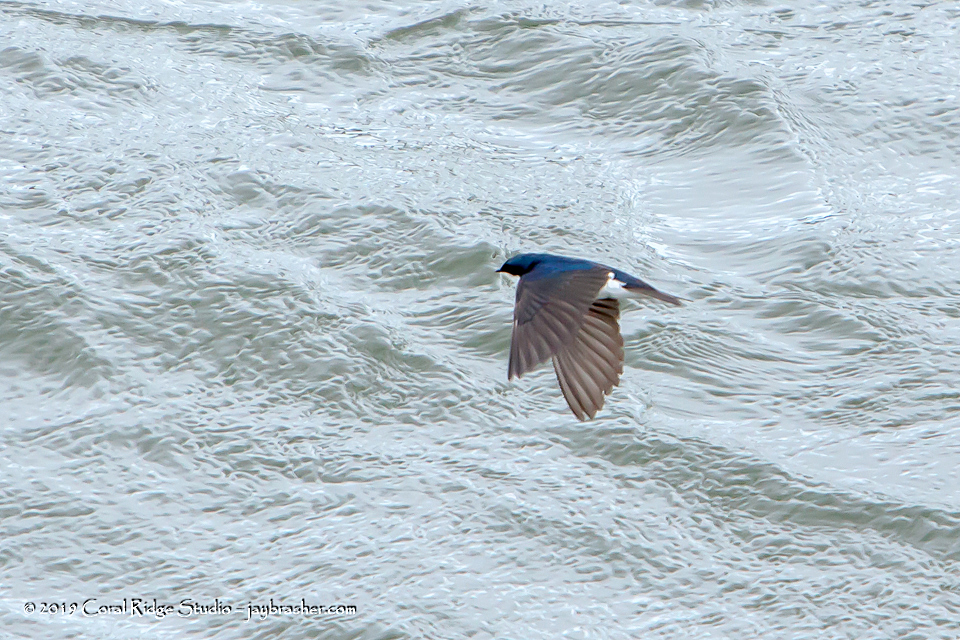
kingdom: Animalia
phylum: Chordata
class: Aves
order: Passeriformes
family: Hirundinidae
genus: Tachycineta
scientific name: Tachycineta bicolor
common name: Tree swallow
